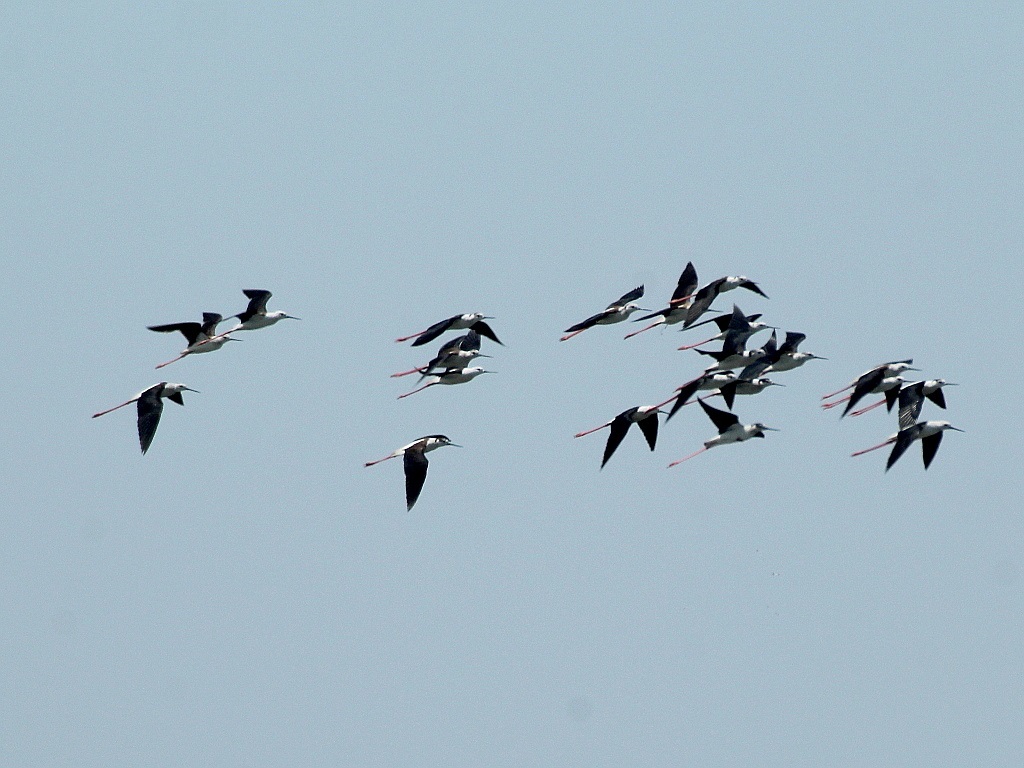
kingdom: Animalia
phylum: Chordata
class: Aves
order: Charadriiformes
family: Recurvirostridae
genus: Himantopus
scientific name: Himantopus himantopus
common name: Black-winged stilt
